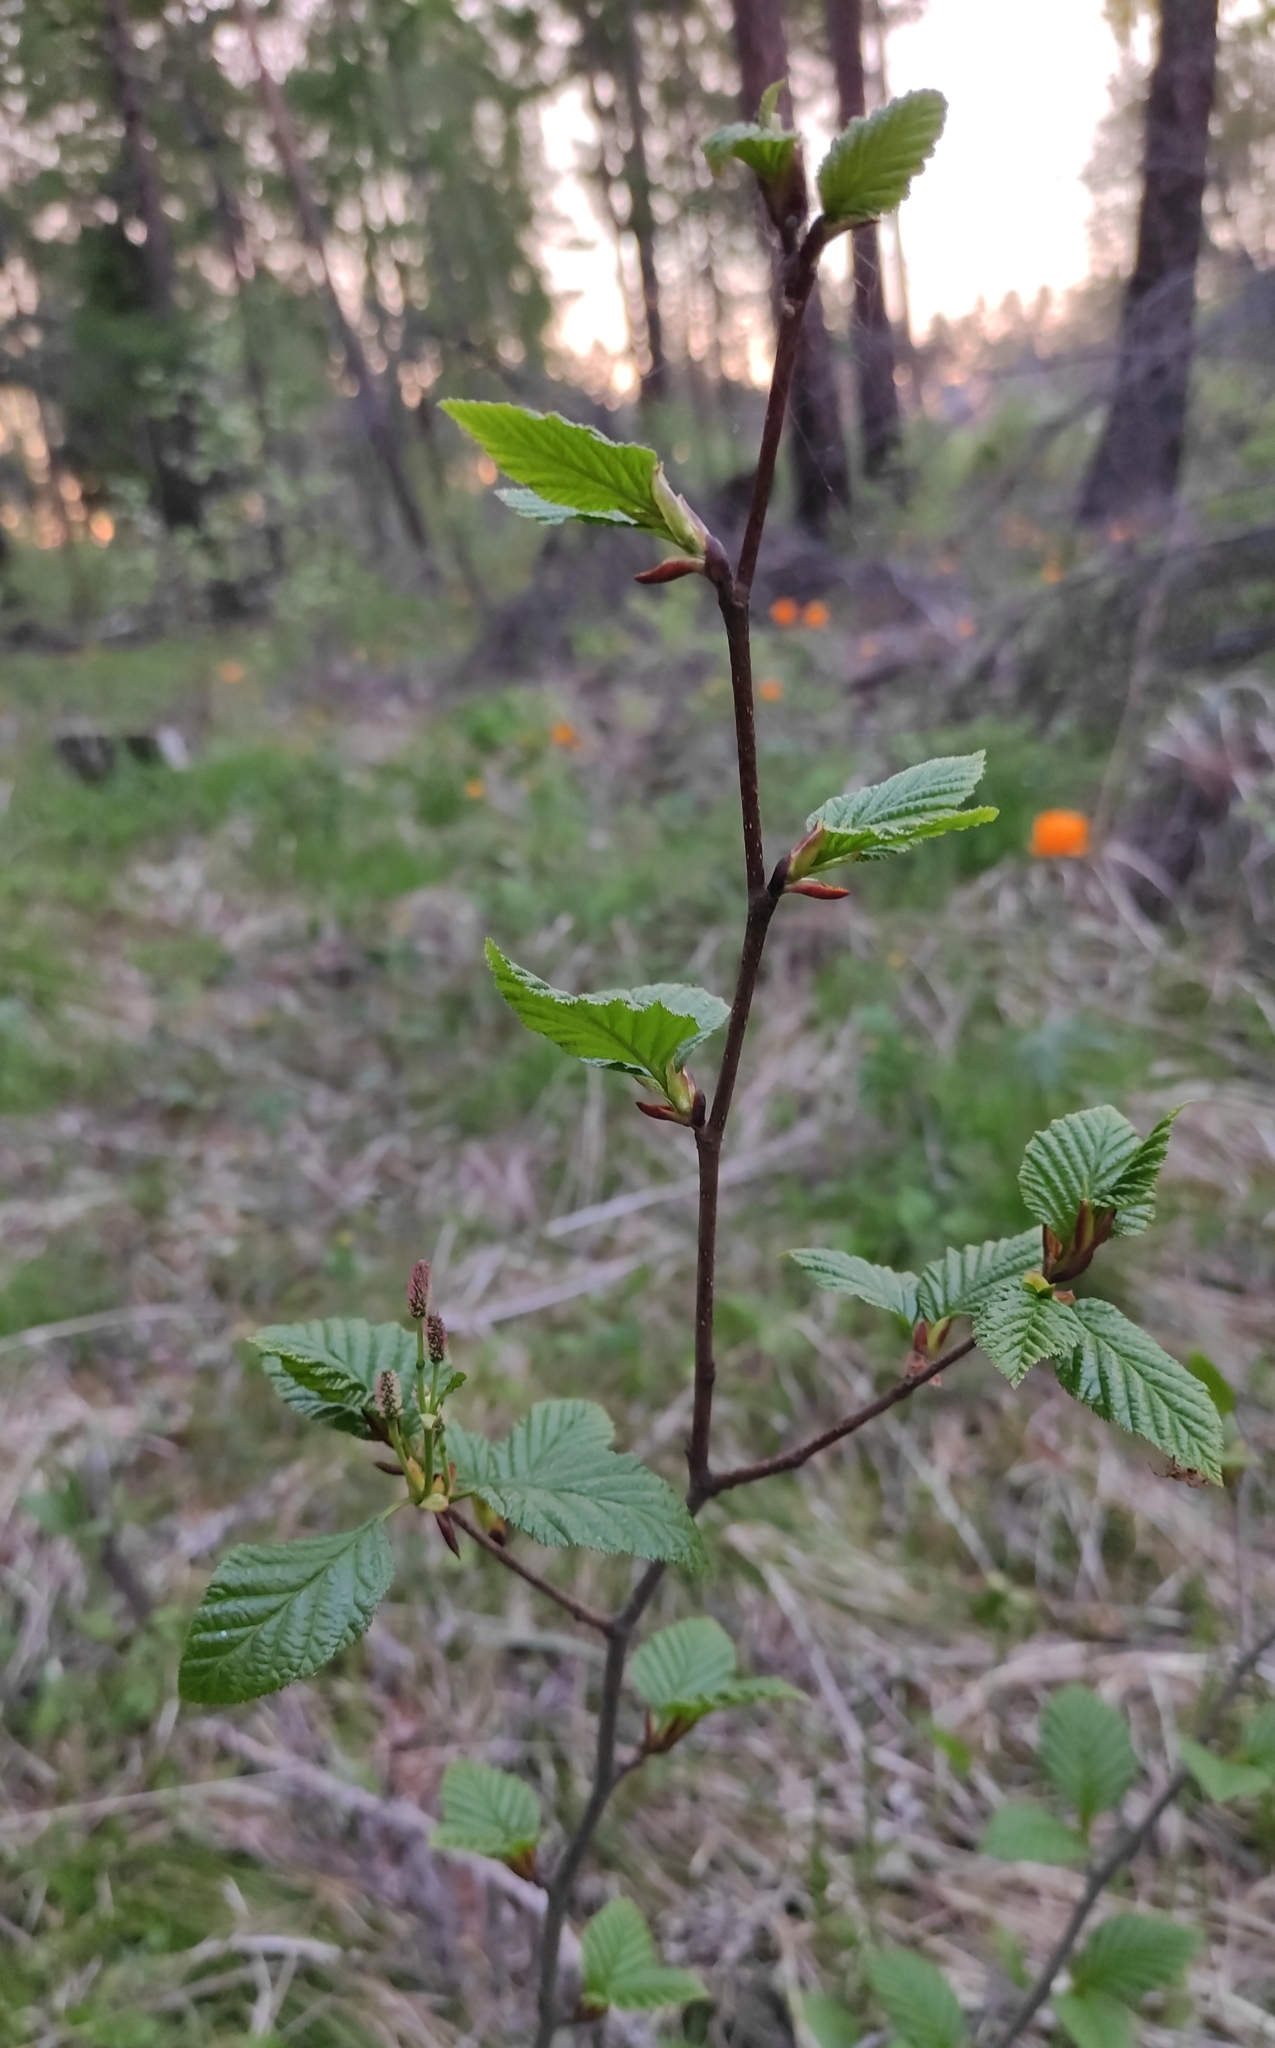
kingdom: Plantae
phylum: Tracheophyta
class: Magnoliopsida
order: Fagales
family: Betulaceae
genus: Alnus
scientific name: Alnus alnobetula
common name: Green alder
